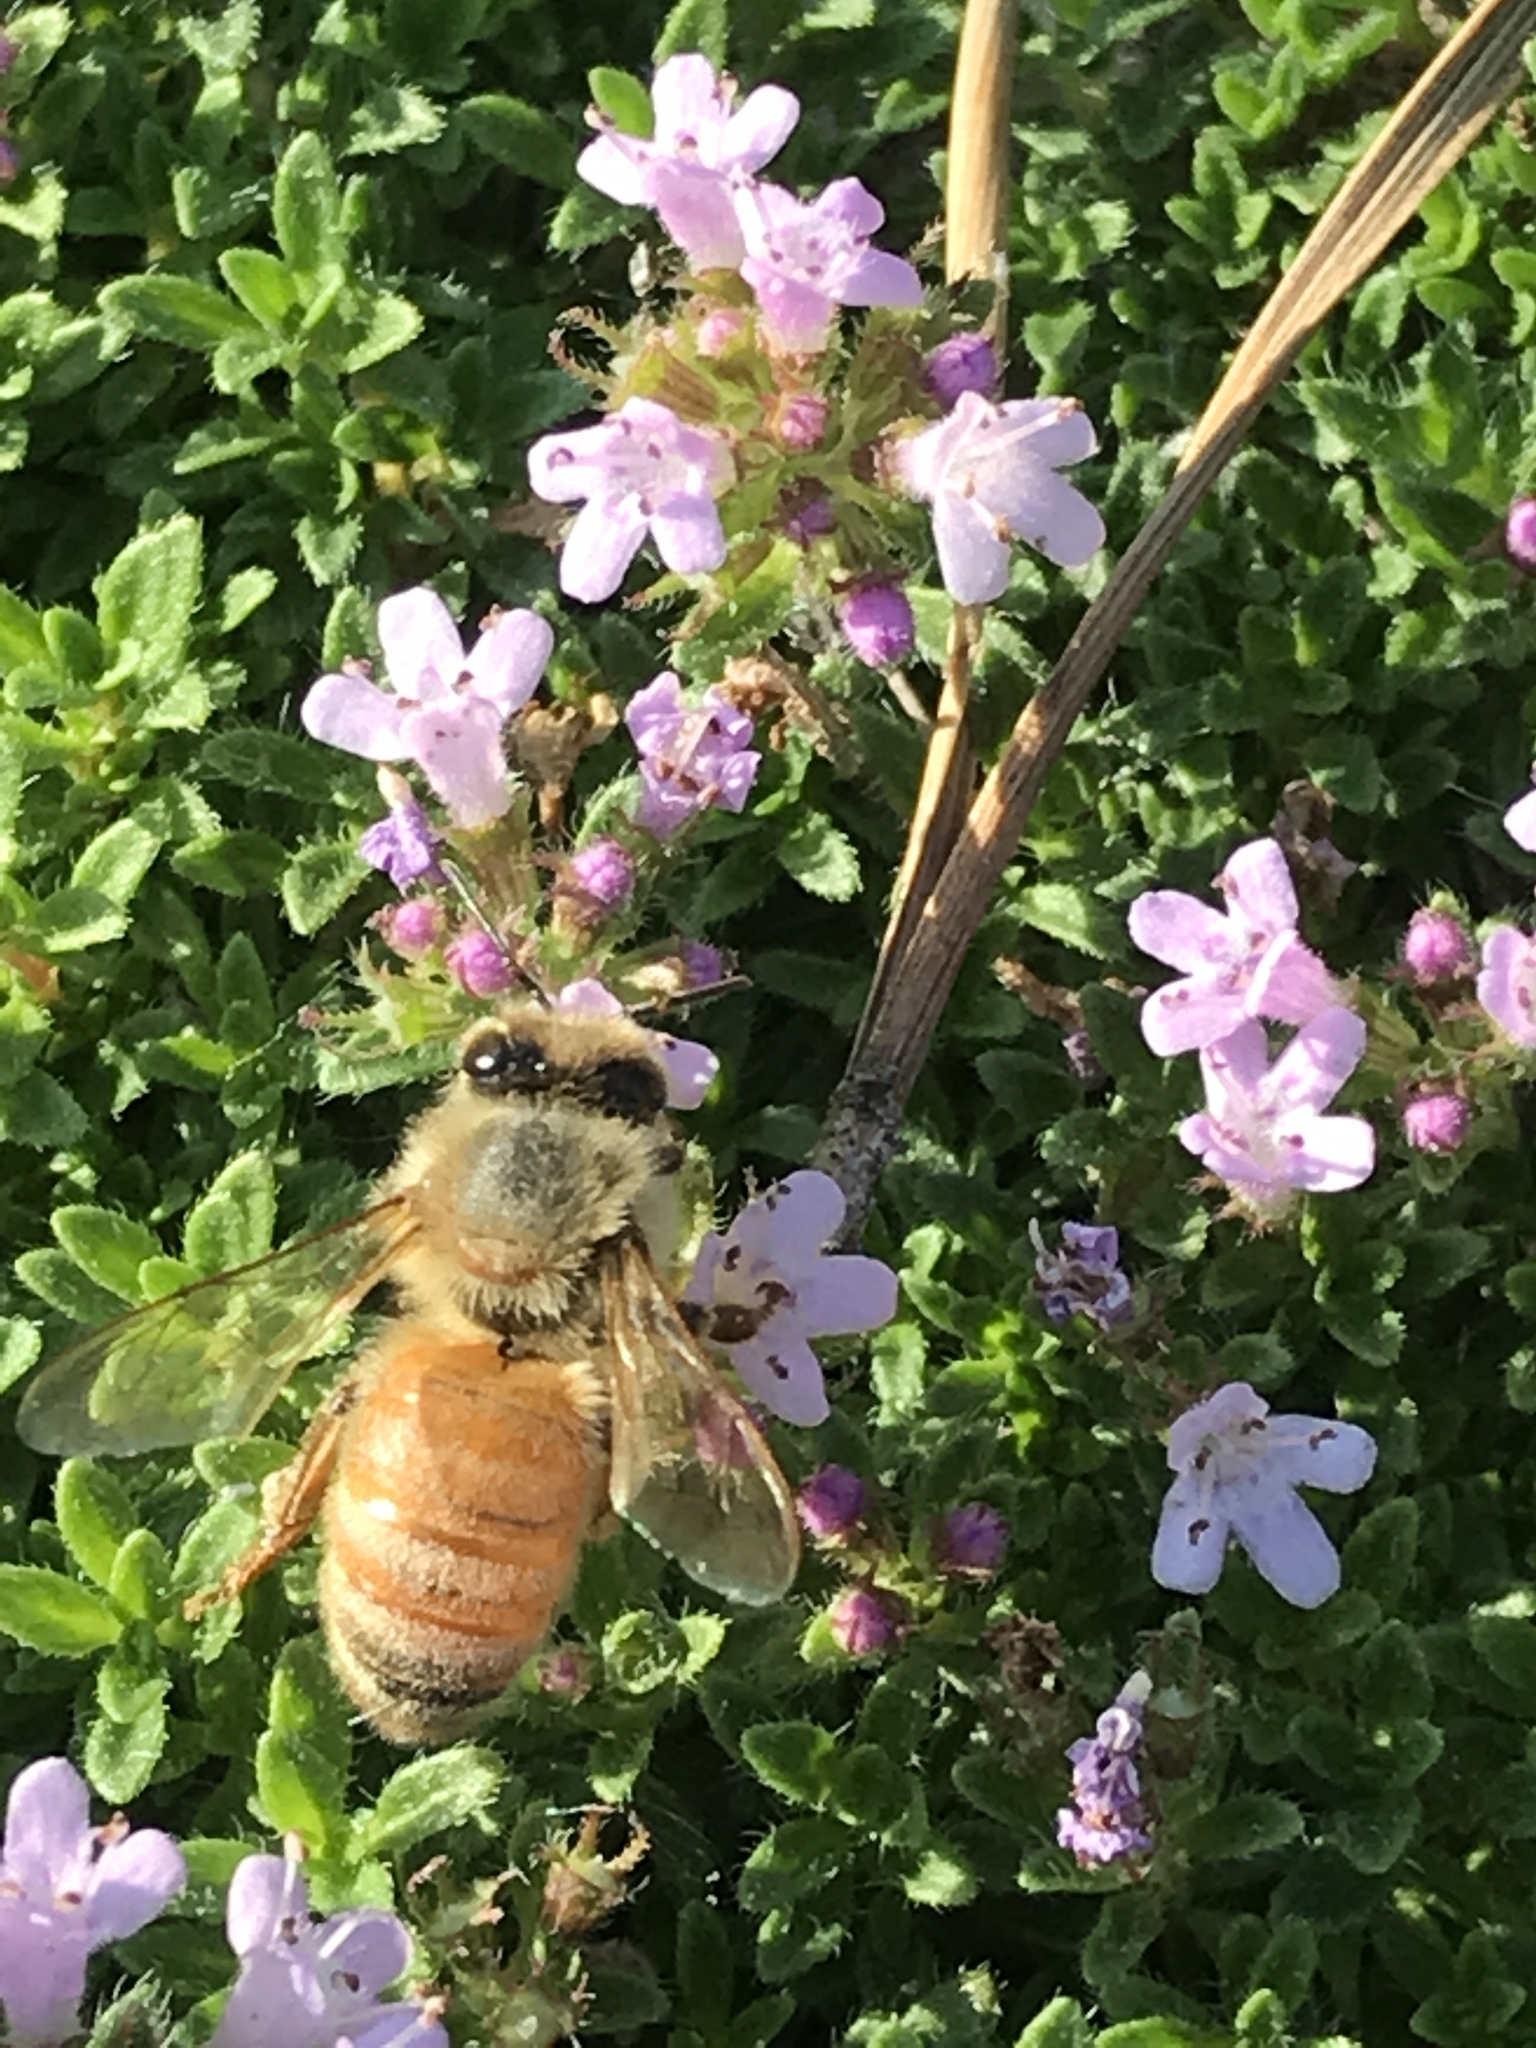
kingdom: Animalia
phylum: Arthropoda
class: Insecta
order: Hymenoptera
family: Apidae
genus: Apis
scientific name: Apis mellifera
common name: Honey bee
